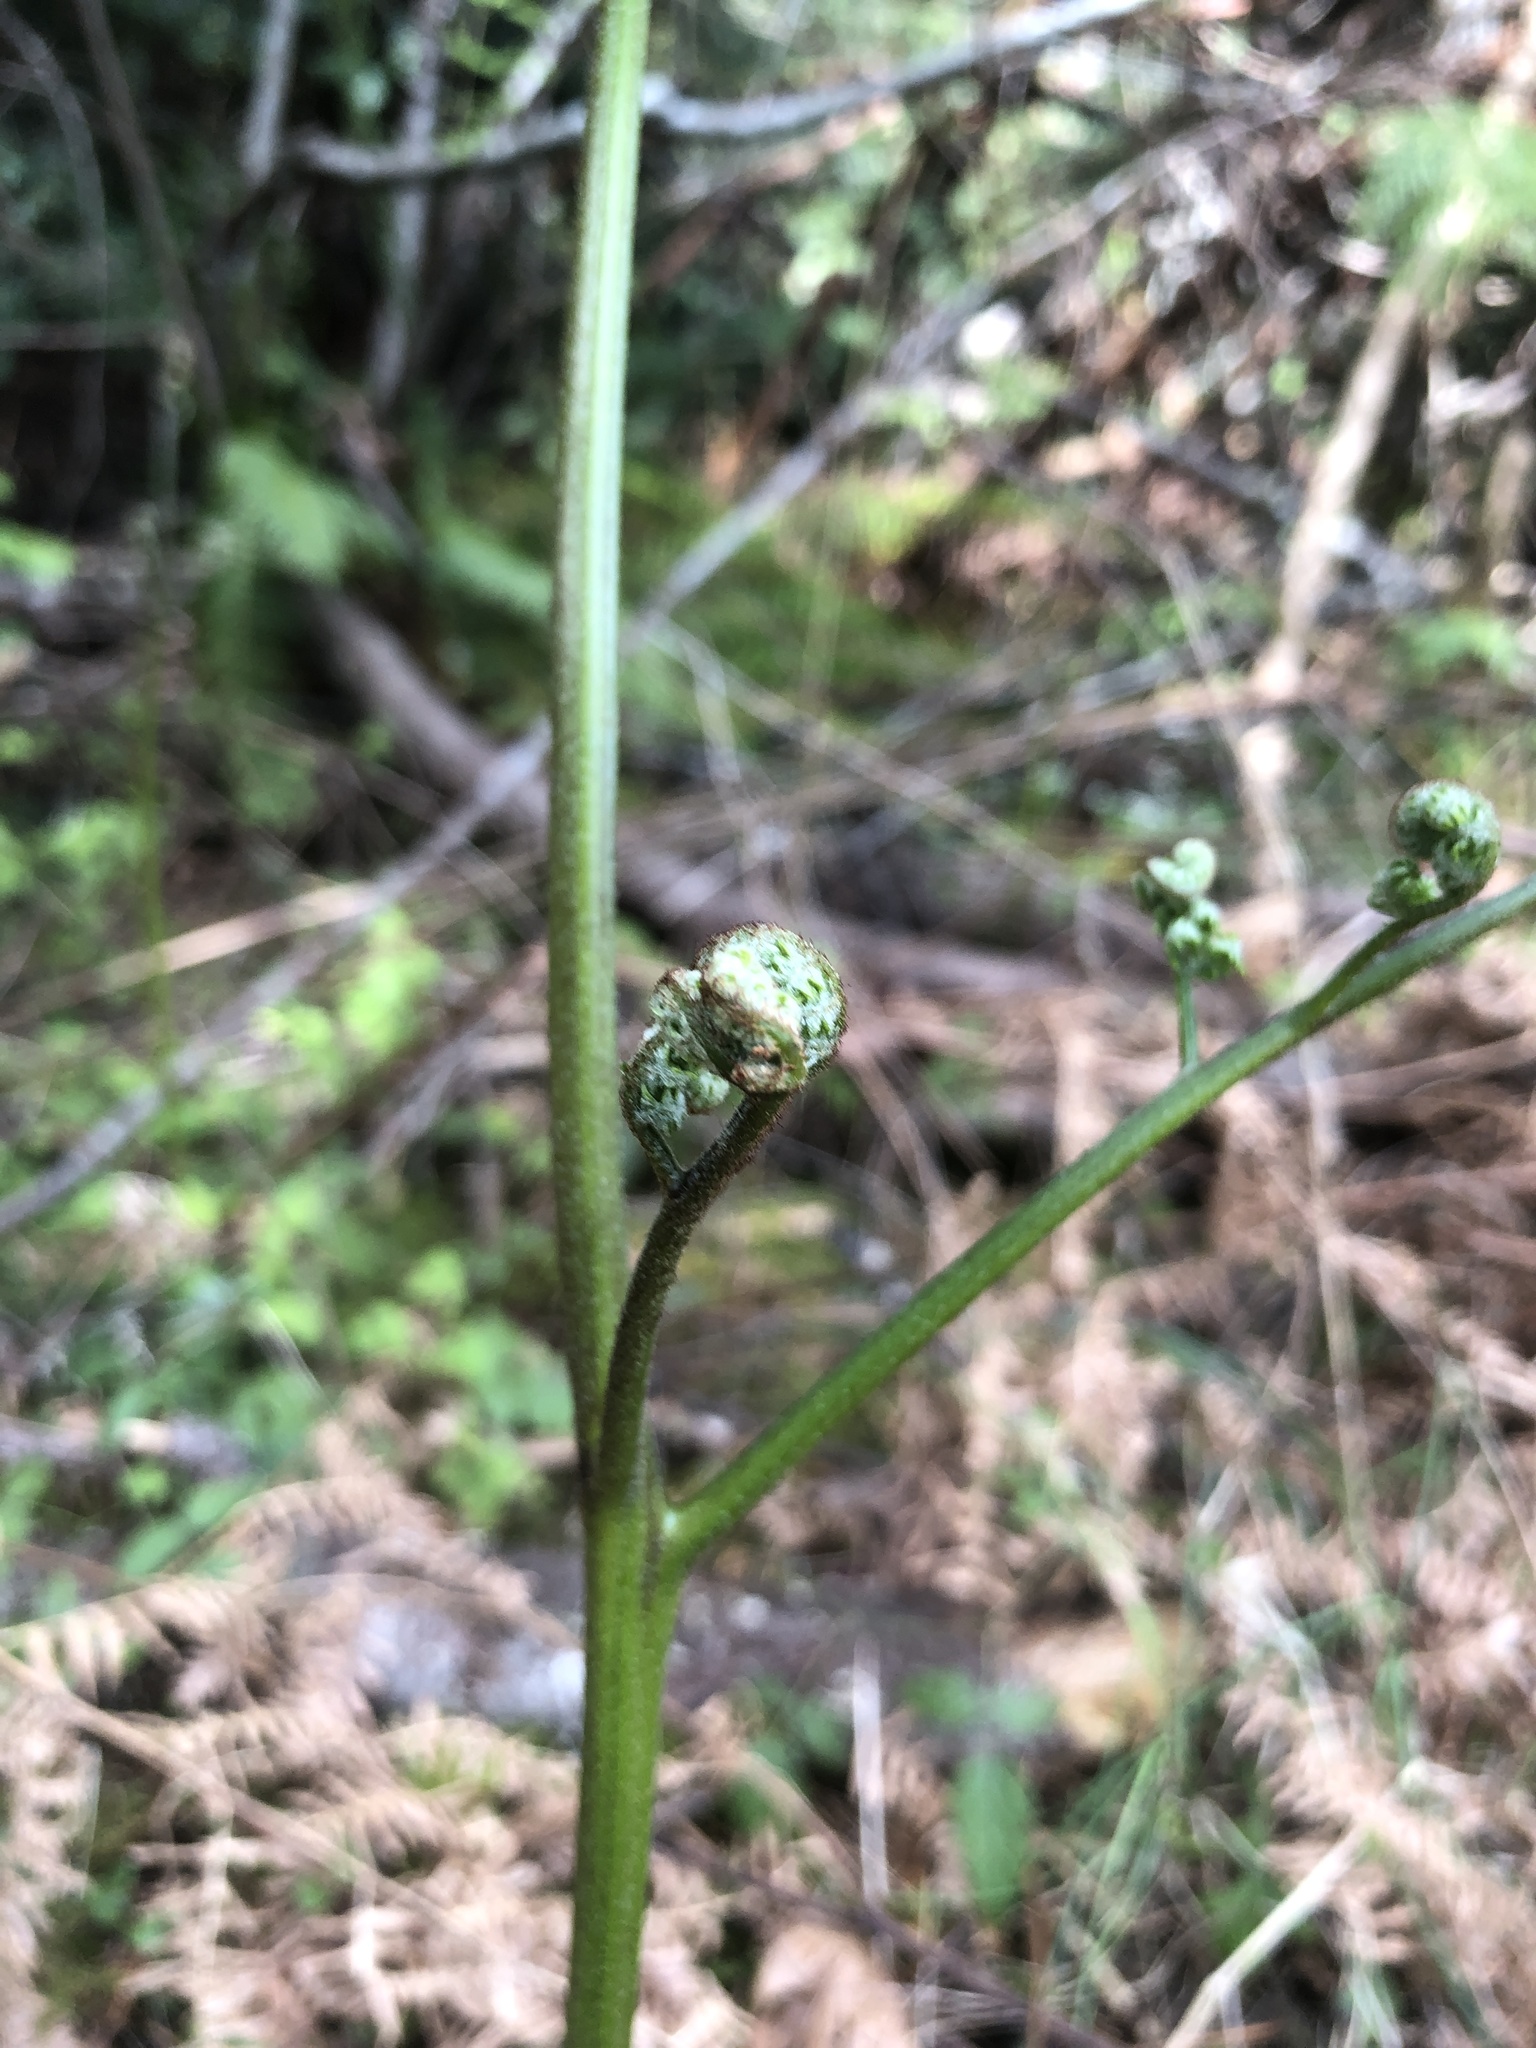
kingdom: Plantae
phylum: Tracheophyta
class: Polypodiopsida
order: Polypodiales
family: Dennstaedtiaceae
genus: Pteridium
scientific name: Pteridium aquilinum
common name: Bracken
